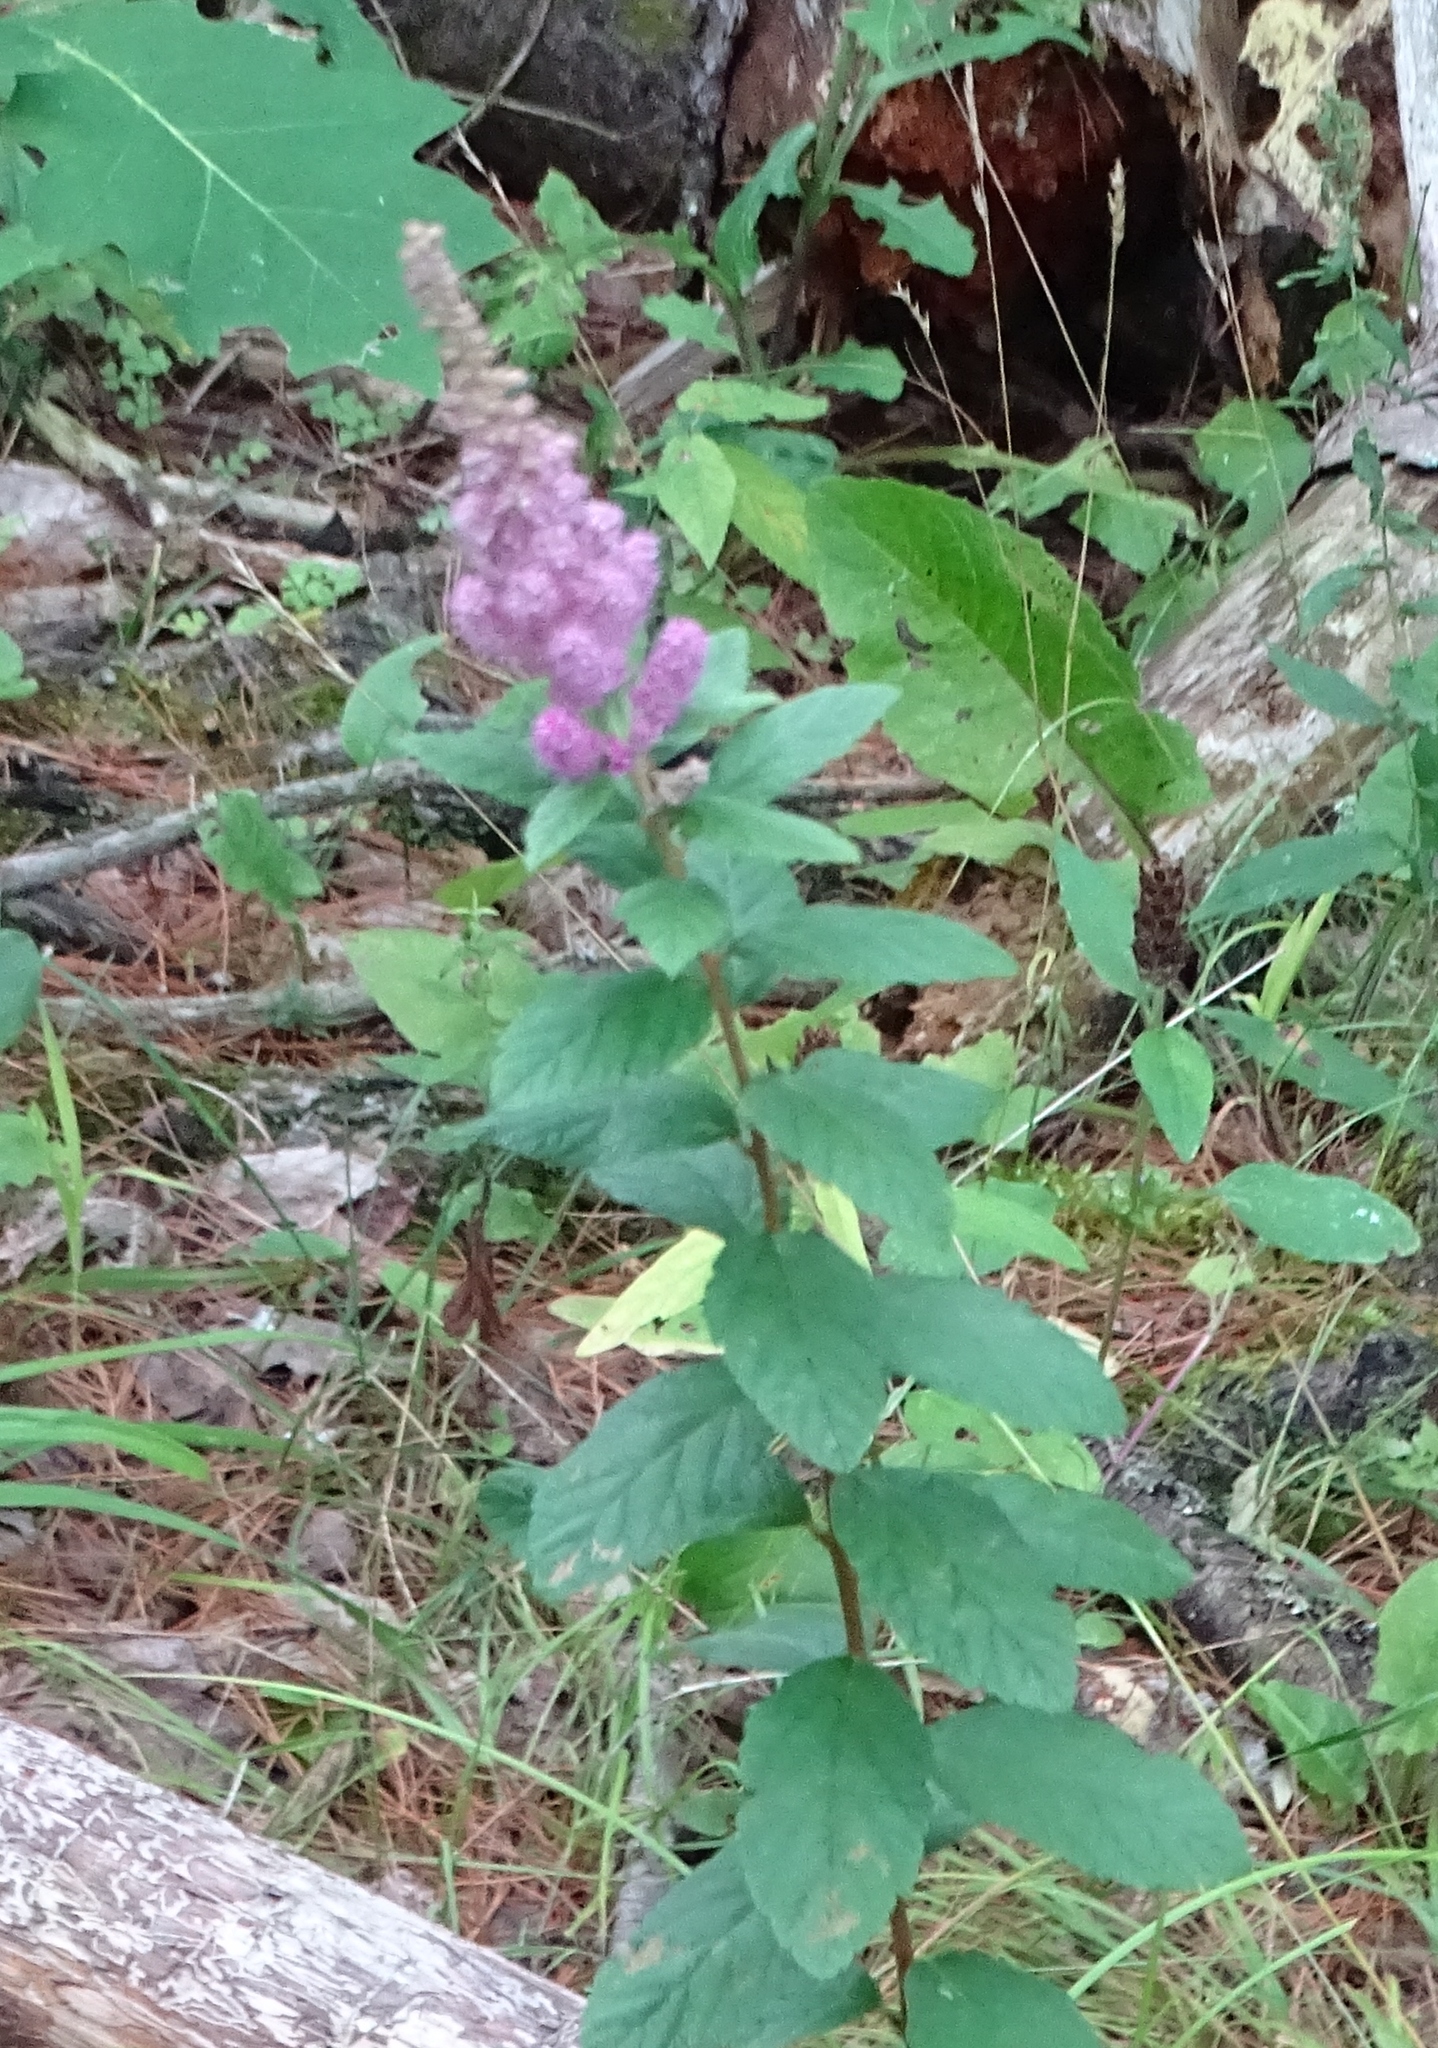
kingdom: Plantae
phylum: Tracheophyta
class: Magnoliopsida
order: Rosales
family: Rosaceae
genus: Spiraea
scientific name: Spiraea tomentosa
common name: Hardhack
